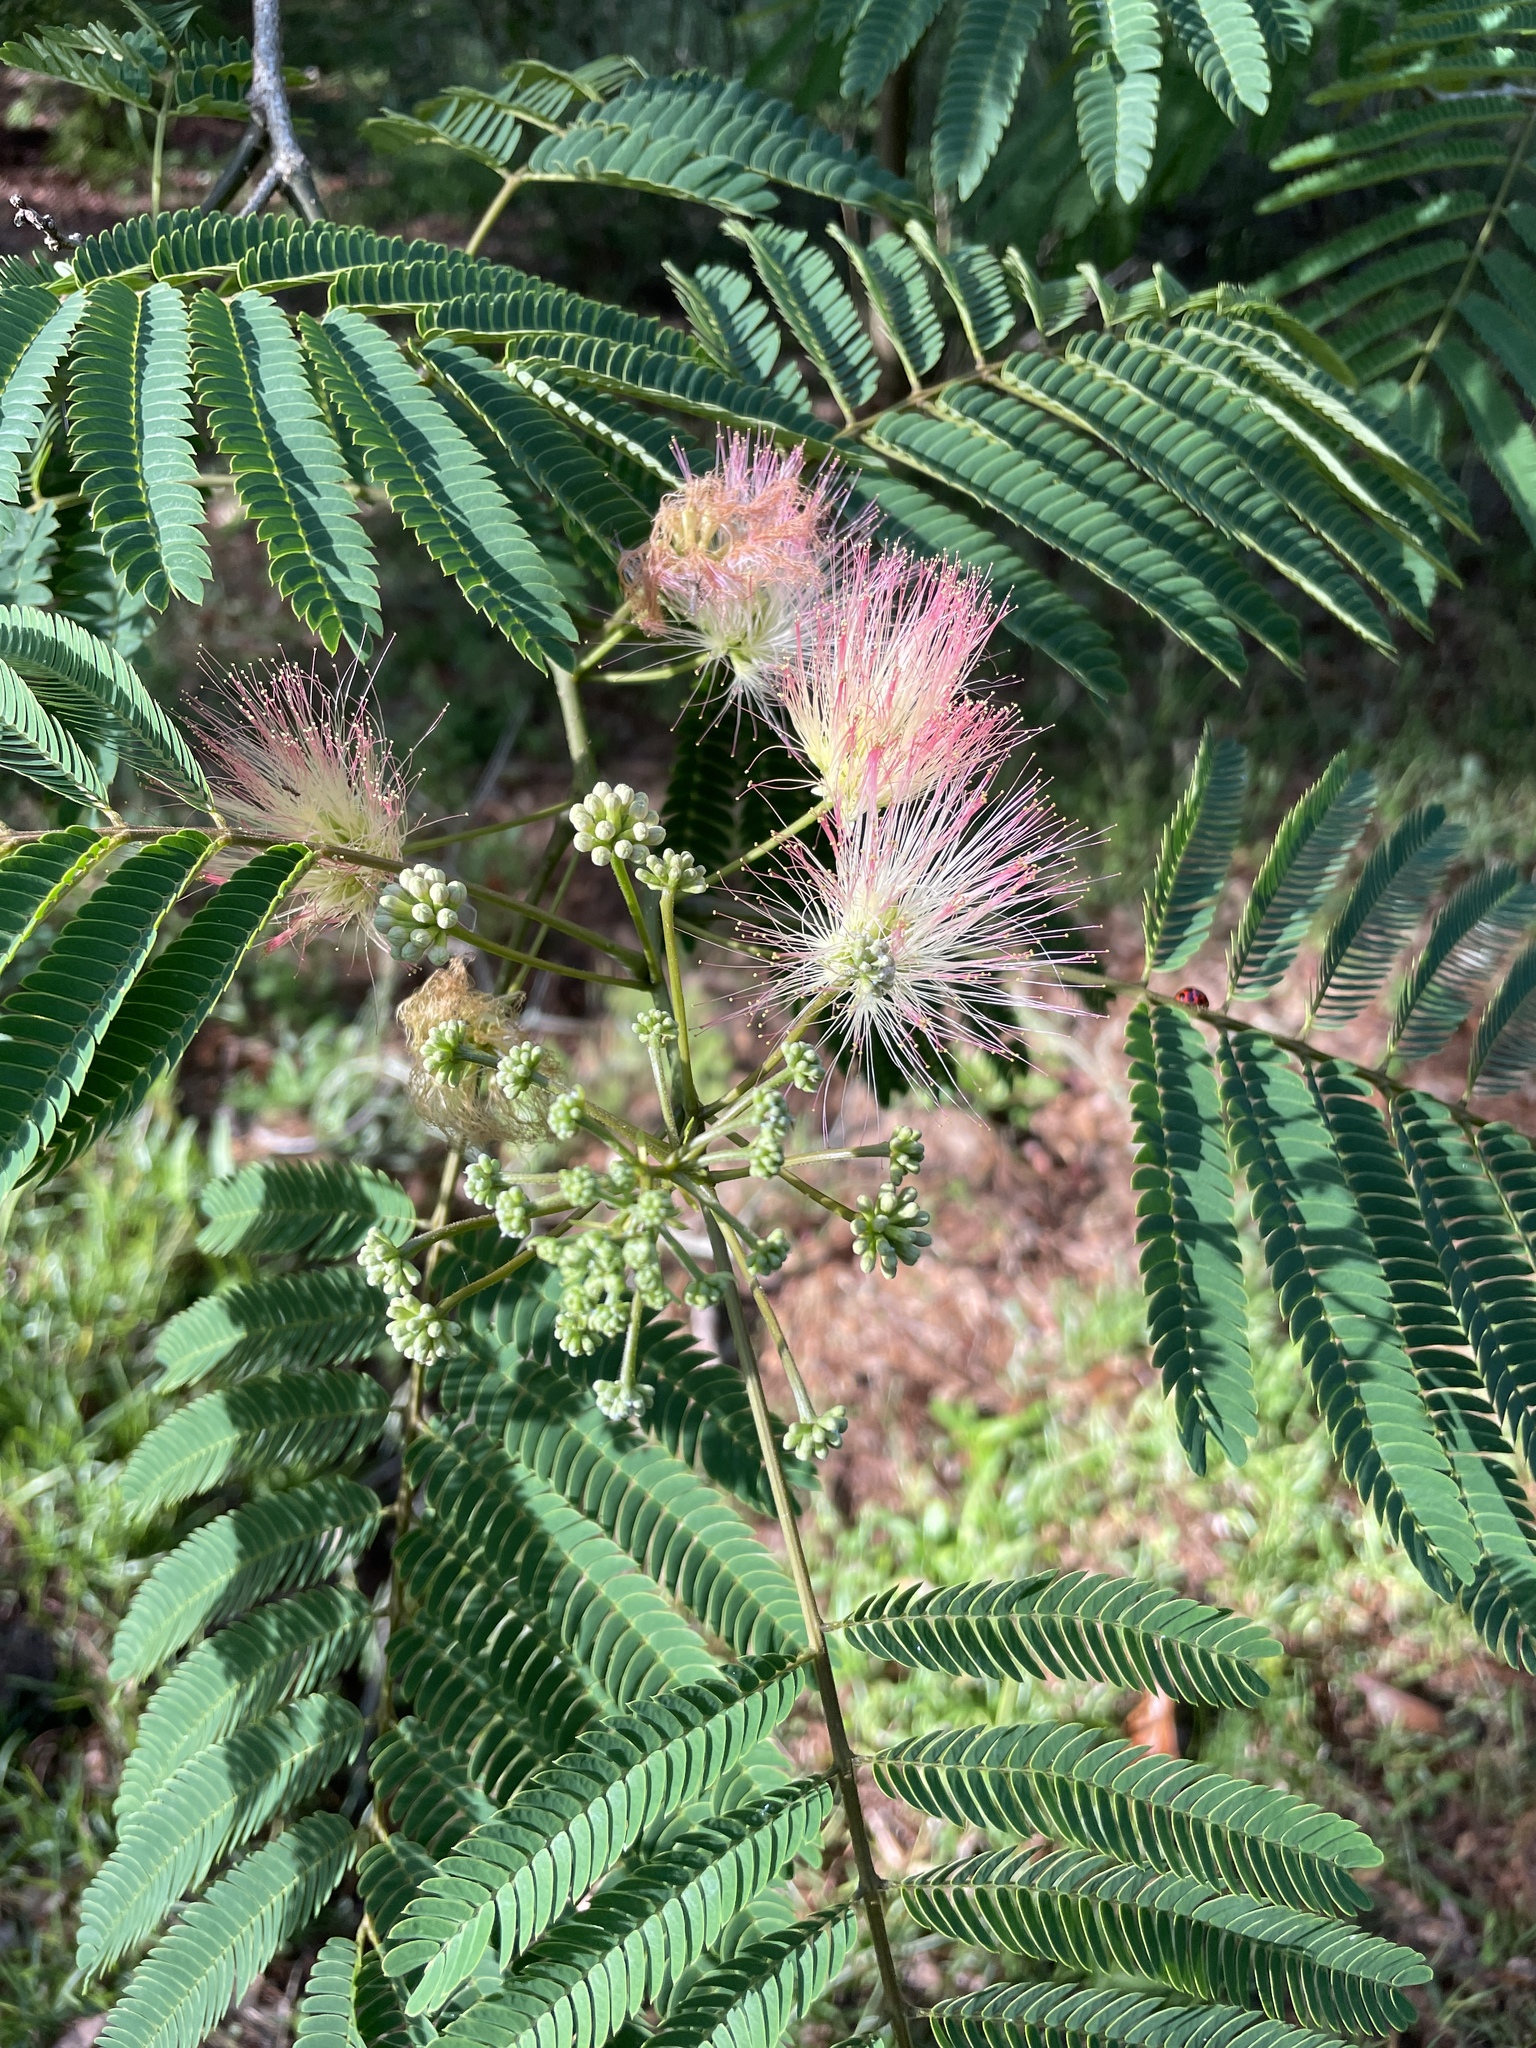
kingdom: Plantae
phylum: Tracheophyta
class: Magnoliopsida
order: Fabales
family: Fabaceae
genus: Albizia
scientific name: Albizia julibrissin
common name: Silktree
